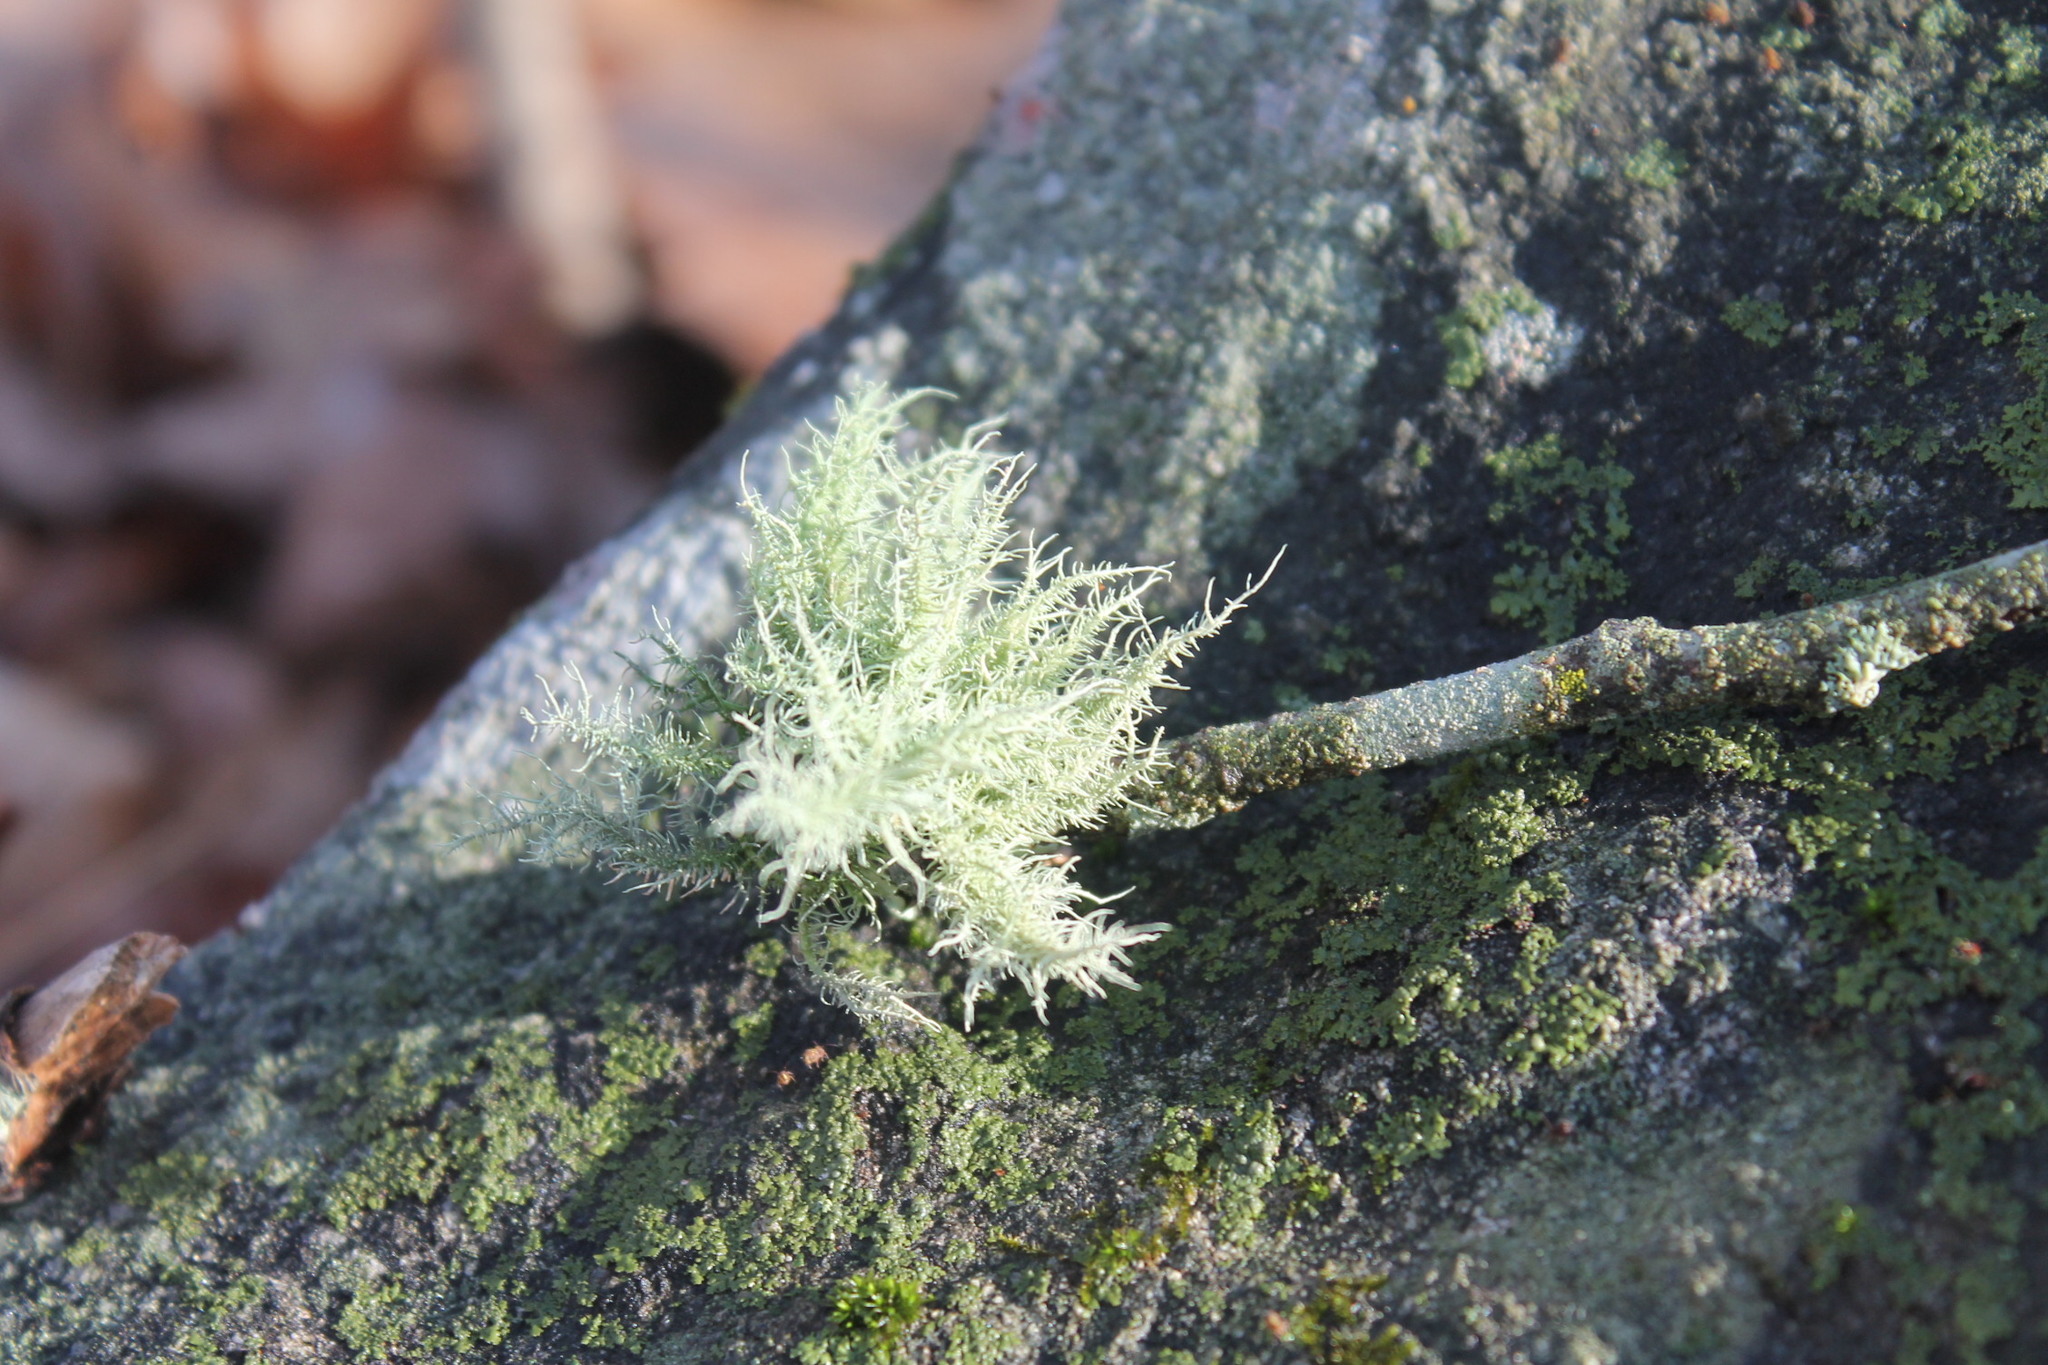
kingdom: Fungi
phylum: Ascomycota
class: Lecanoromycetes
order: Lecanorales
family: Parmeliaceae
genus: Usnea
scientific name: Usnea hirta
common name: Bristly beard lichen
